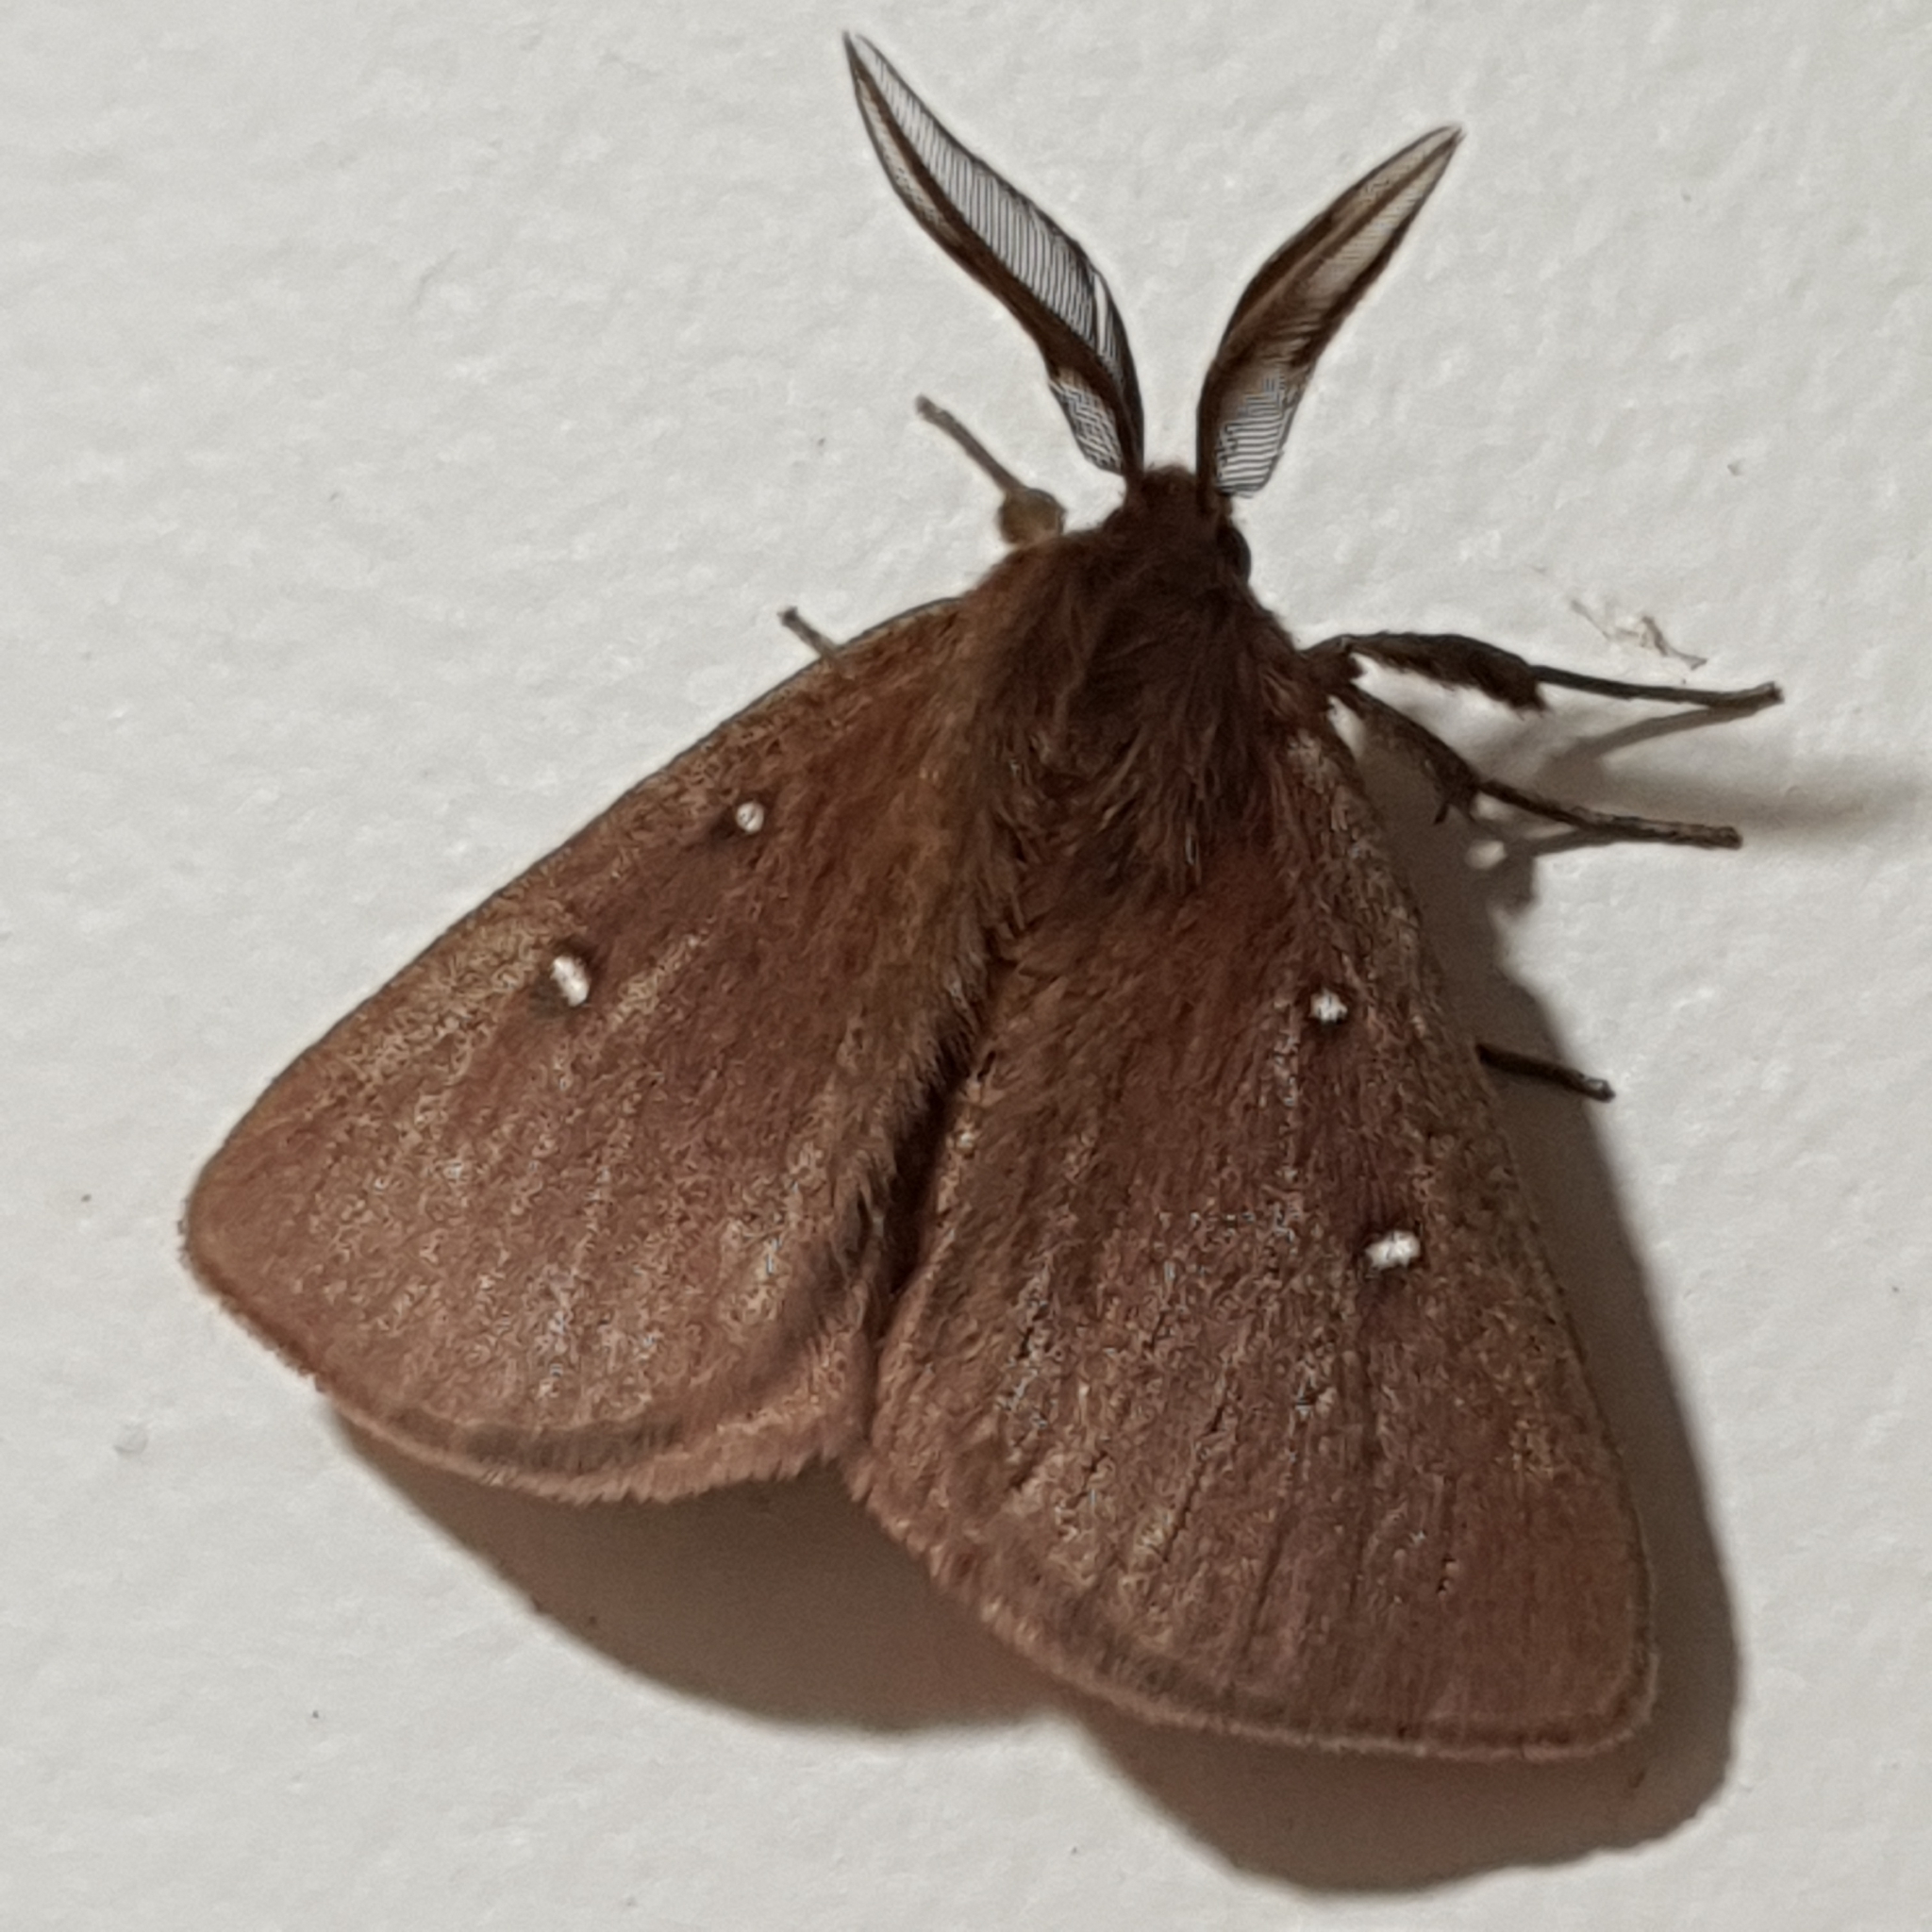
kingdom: Animalia
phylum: Arthropoda
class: Insecta
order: Lepidoptera
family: Anthelidae
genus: Anthela
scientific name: Anthela callispila
